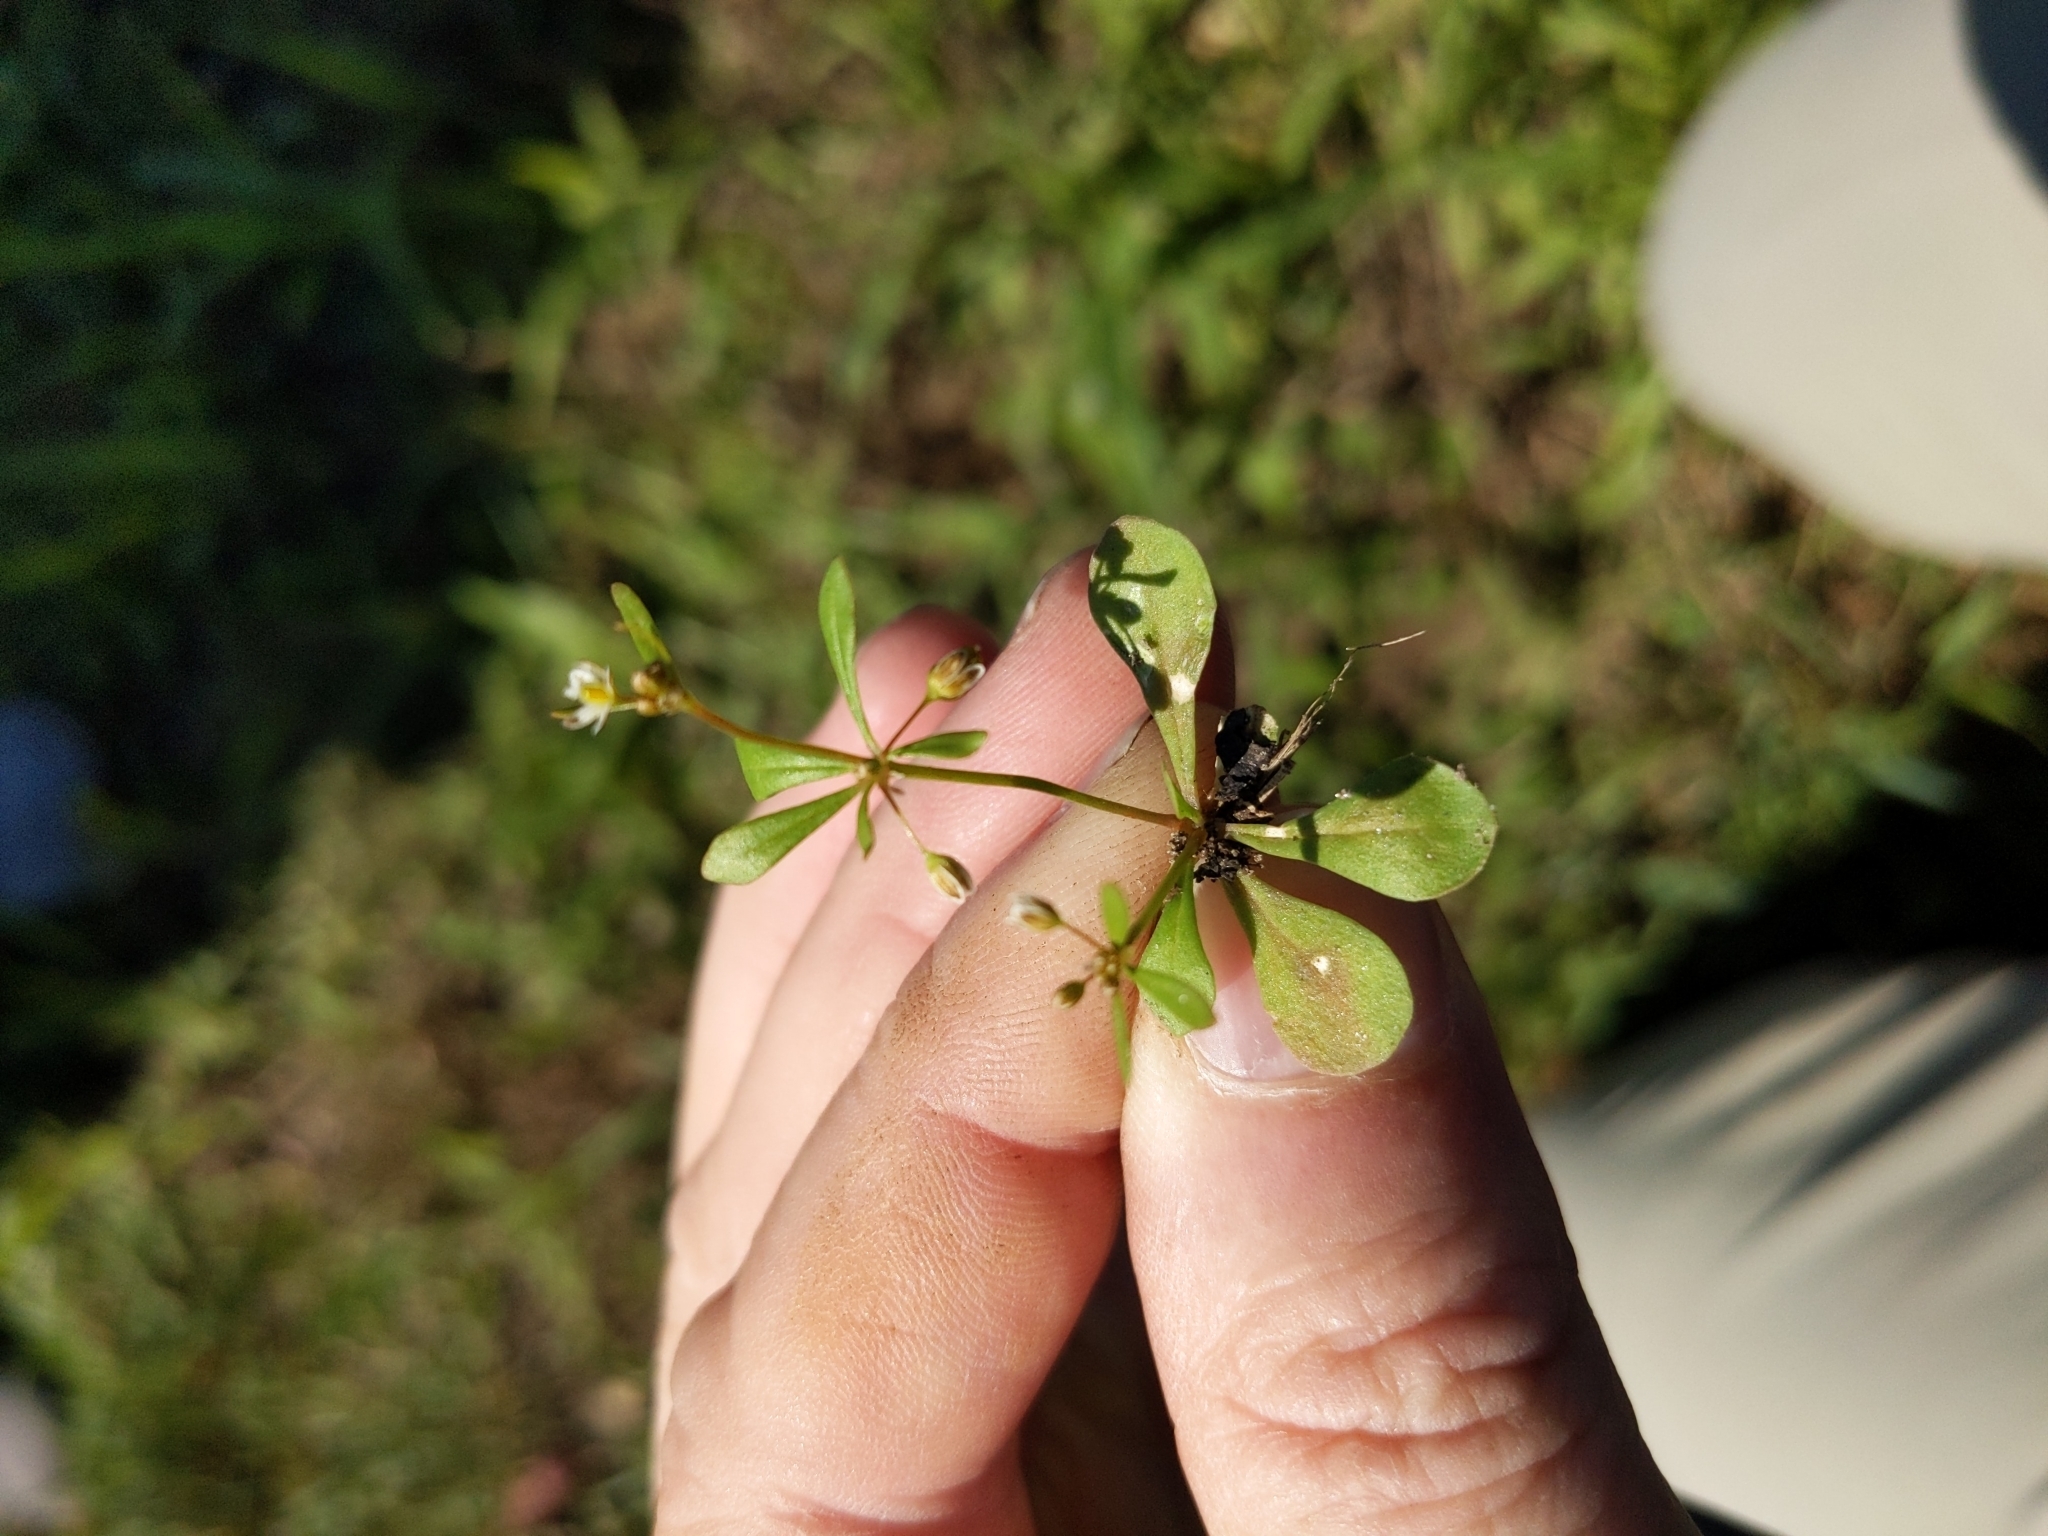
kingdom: Plantae
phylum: Tracheophyta
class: Magnoliopsida
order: Caryophyllales
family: Molluginaceae
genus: Mollugo
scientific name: Mollugo verticillata
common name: Green carpetweed
